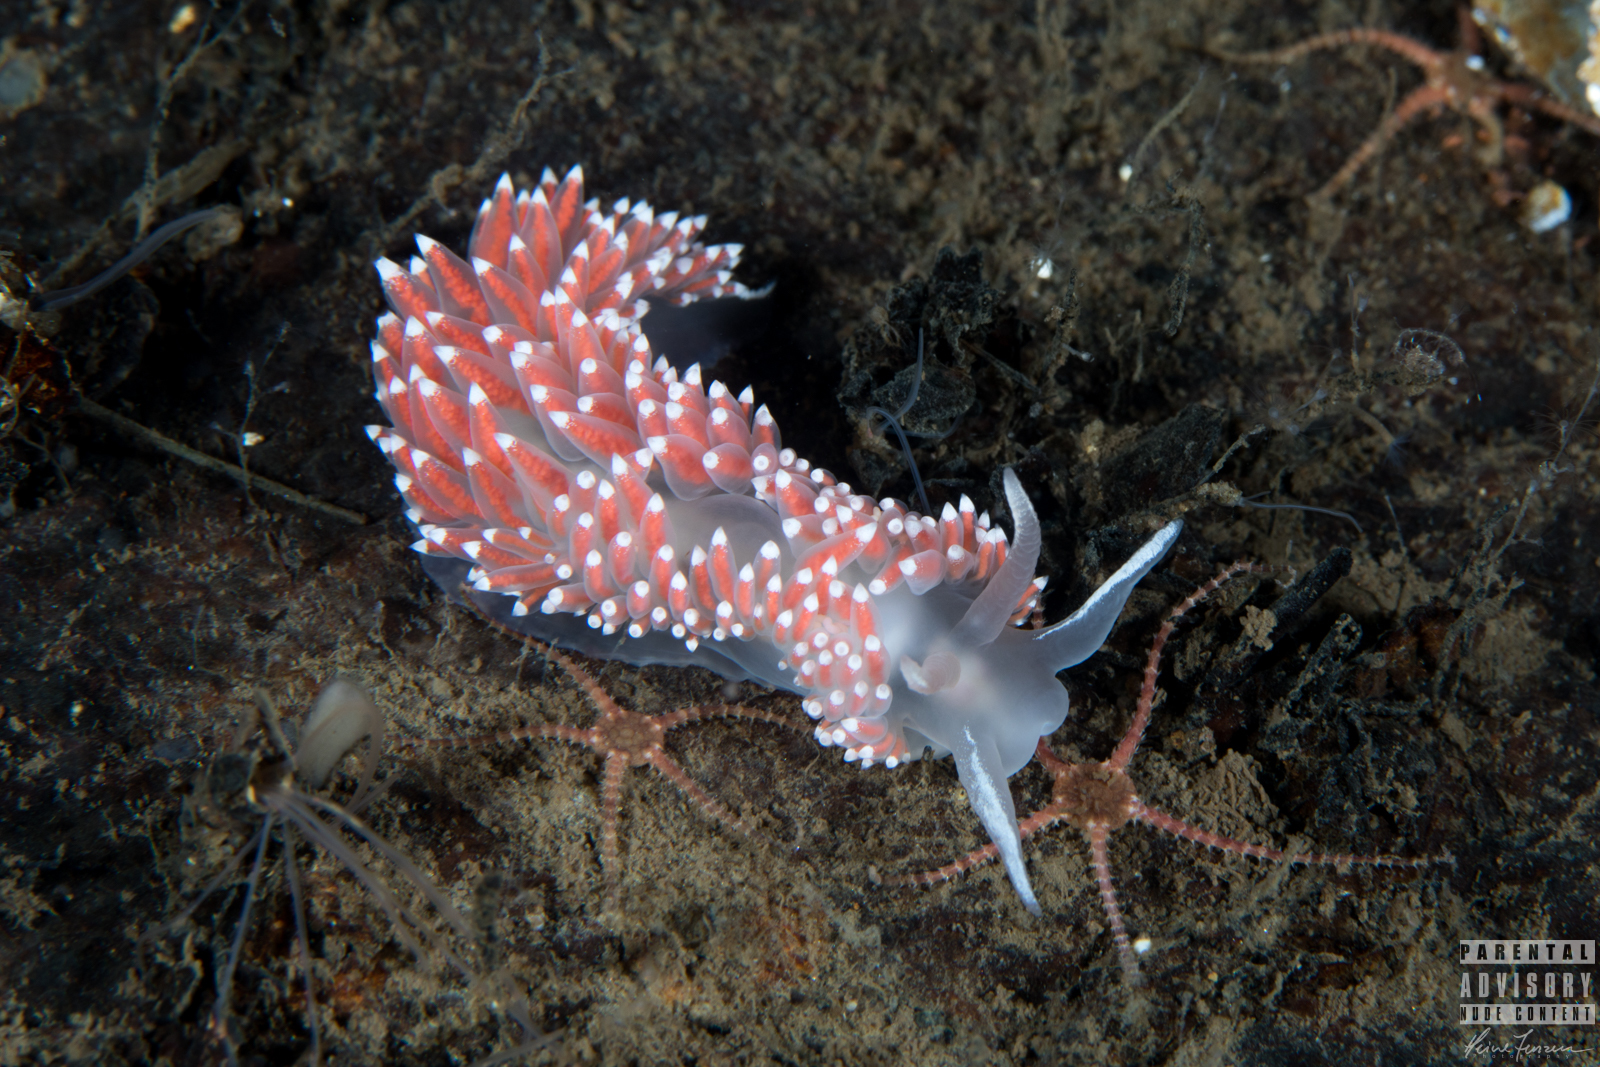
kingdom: Animalia
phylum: Mollusca
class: Gastropoda
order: Nudibranchia
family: Coryphellidae
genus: Coryphella
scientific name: Coryphella verrucosa
